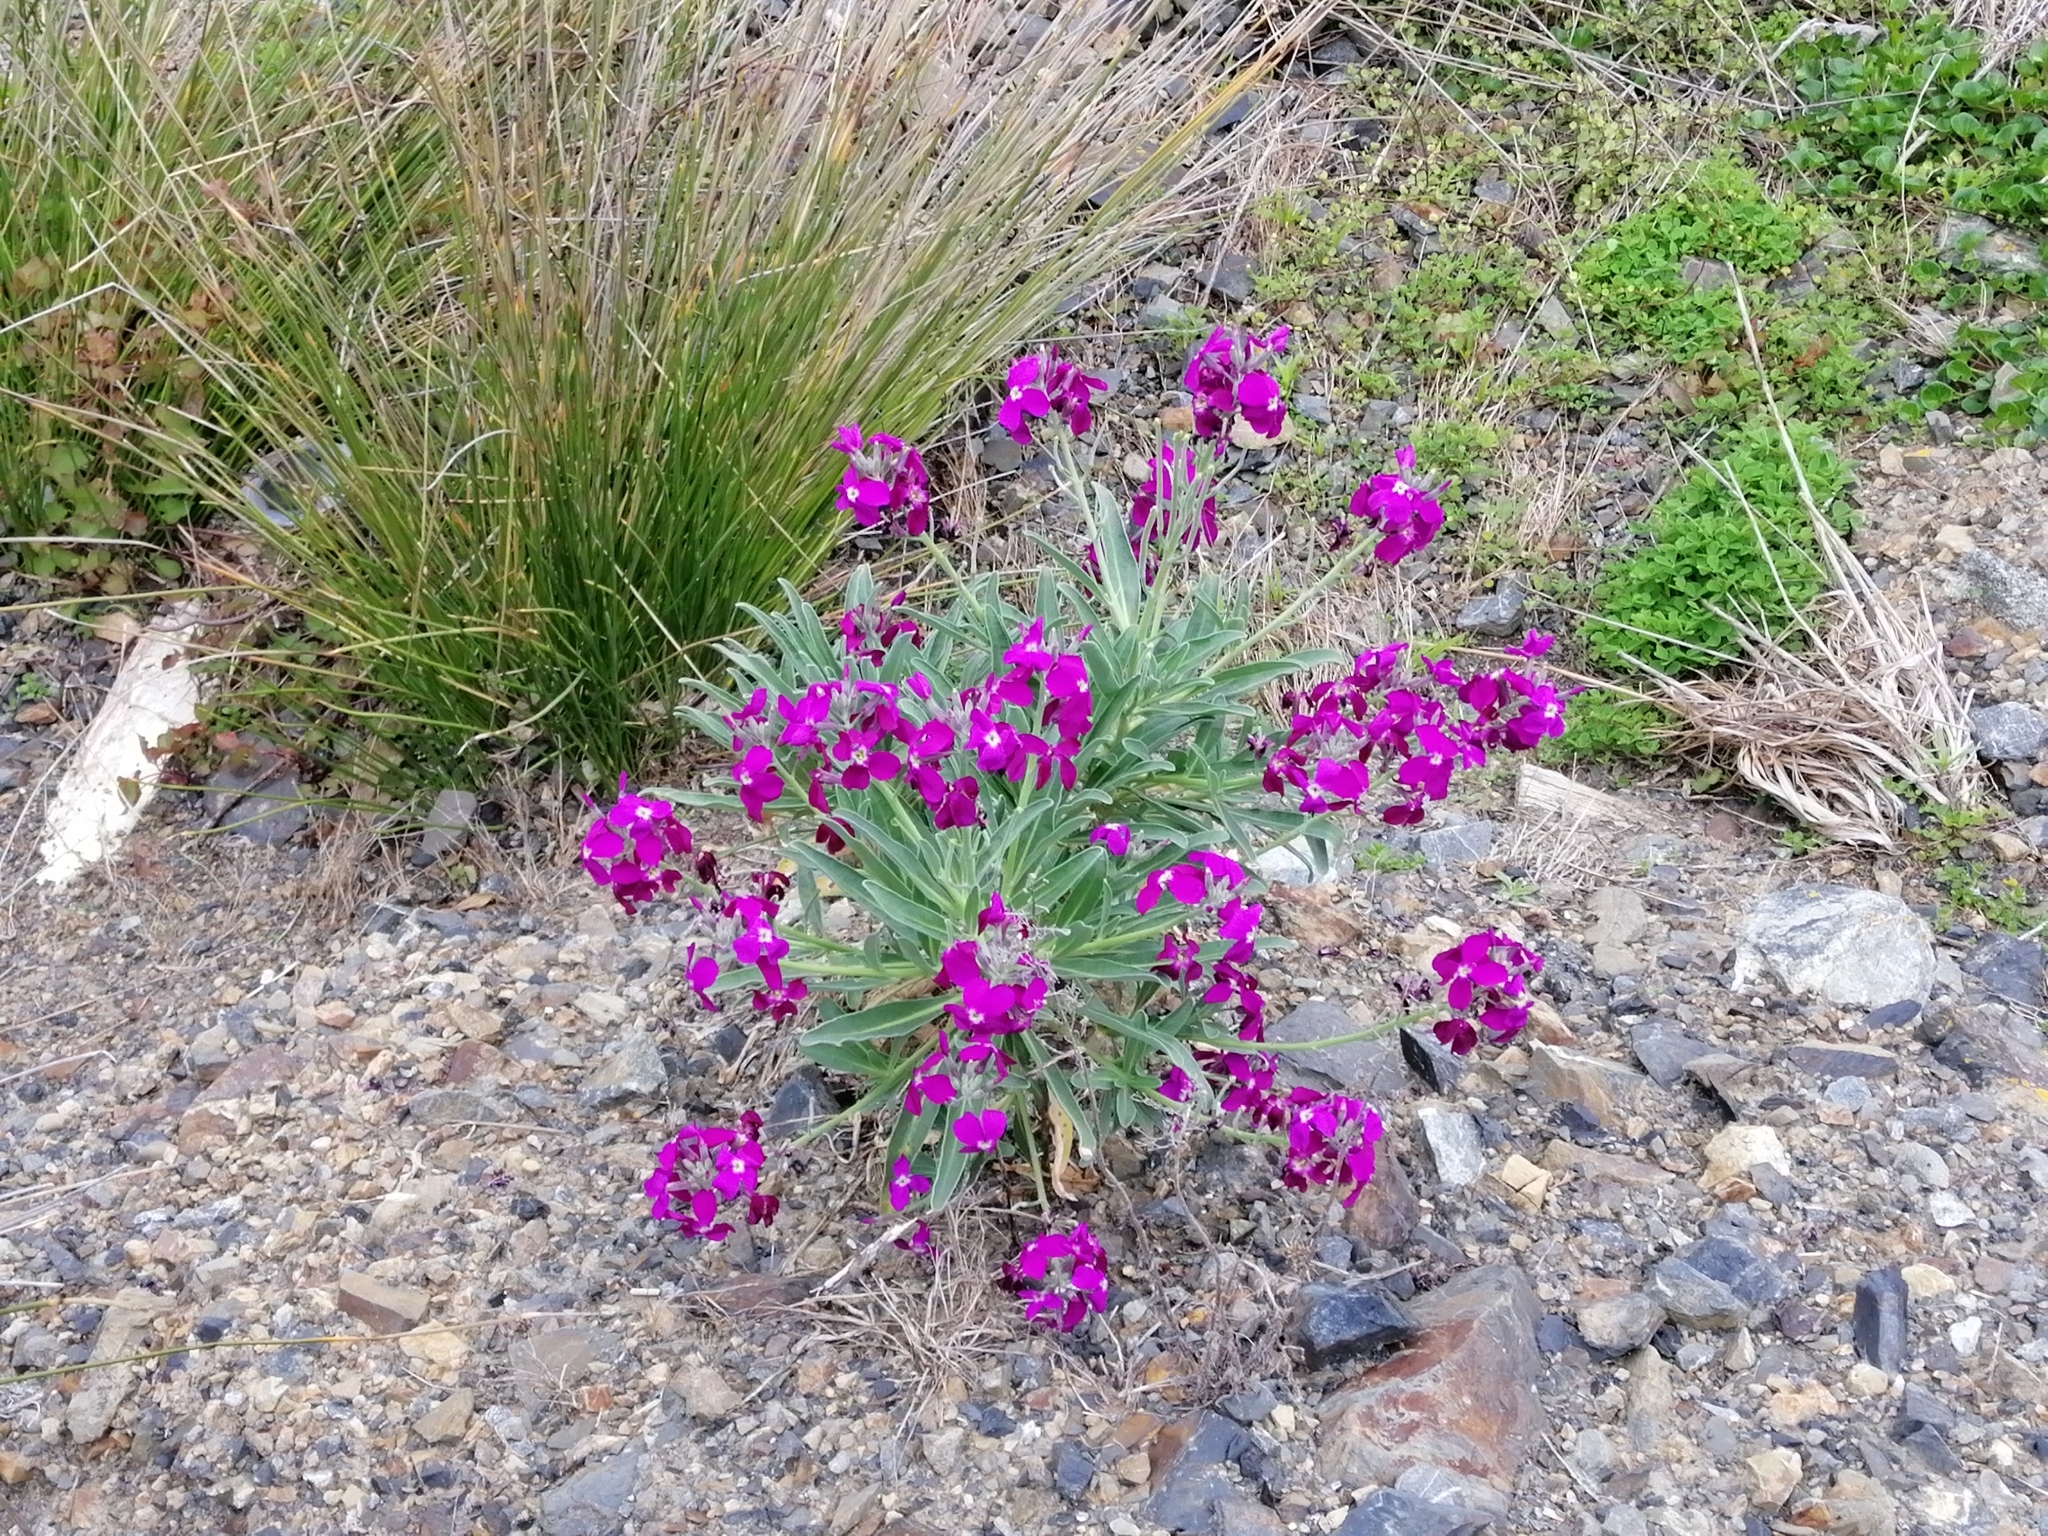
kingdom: Plantae
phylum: Tracheophyta
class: Magnoliopsida
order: Brassicales
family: Brassicaceae
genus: Matthiola
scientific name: Matthiola incana
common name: Hoary stock
